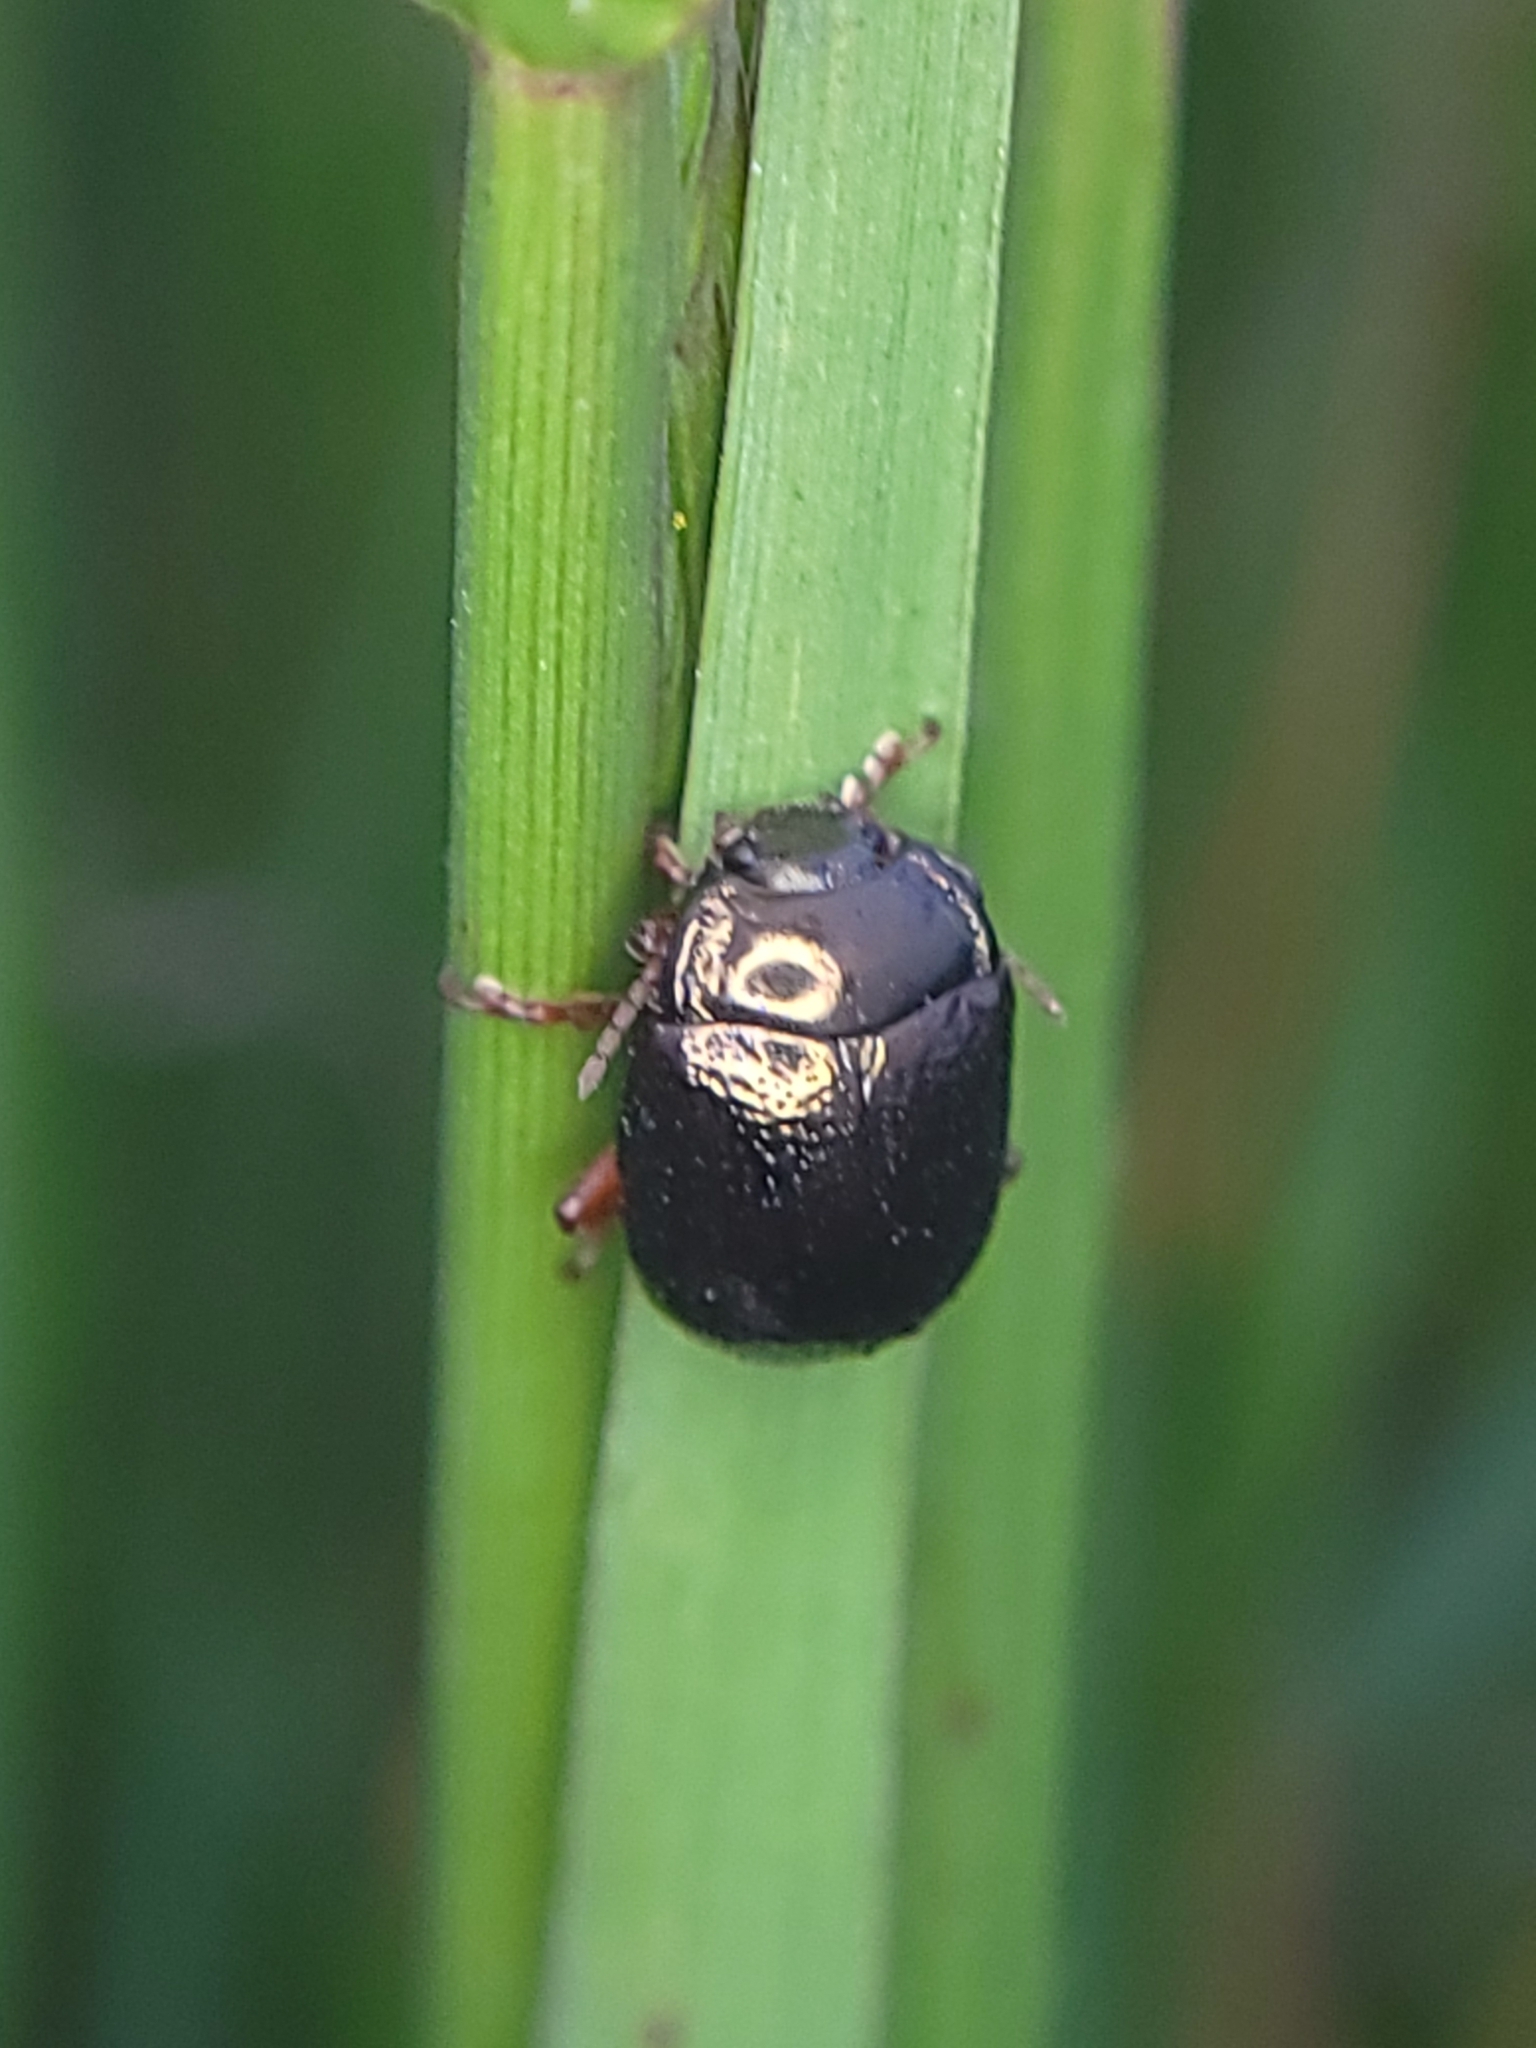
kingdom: Animalia
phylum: Arthropoda
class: Insecta
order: Coleoptera
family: Chrysomelidae
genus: Chrysolina
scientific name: Chrysolina bankii
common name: Leaf beetle
